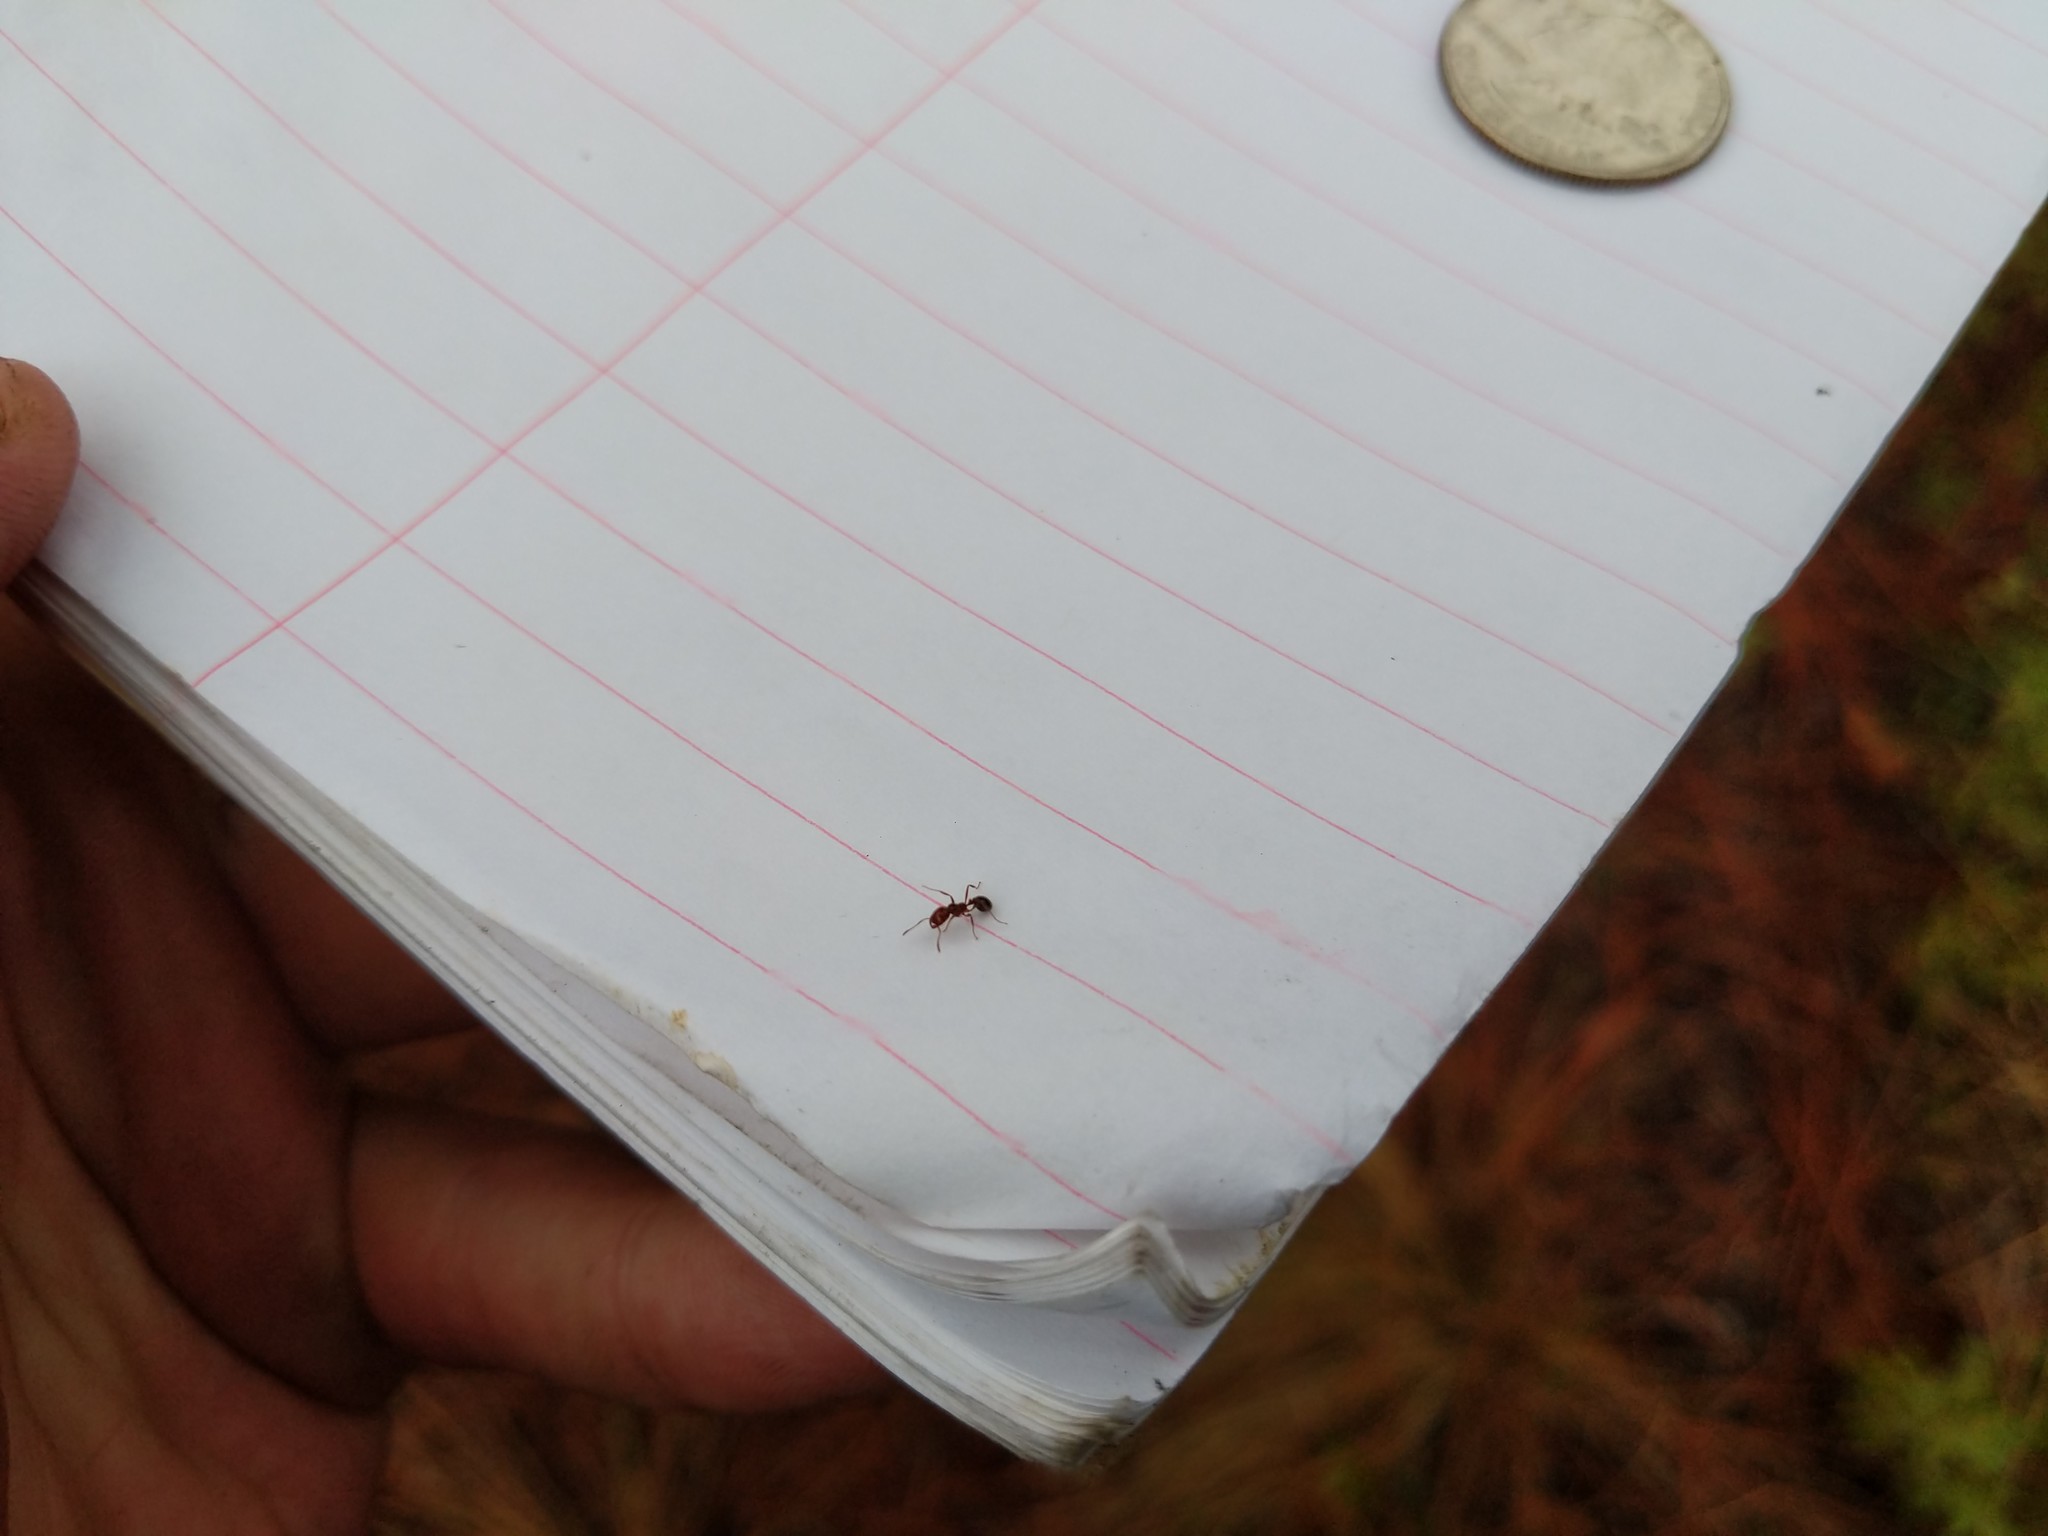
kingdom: Animalia
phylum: Arthropoda
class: Insecta
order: Hymenoptera
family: Formicidae
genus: Solenopsis
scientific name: Solenopsis invicta
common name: Red imported fire ant
